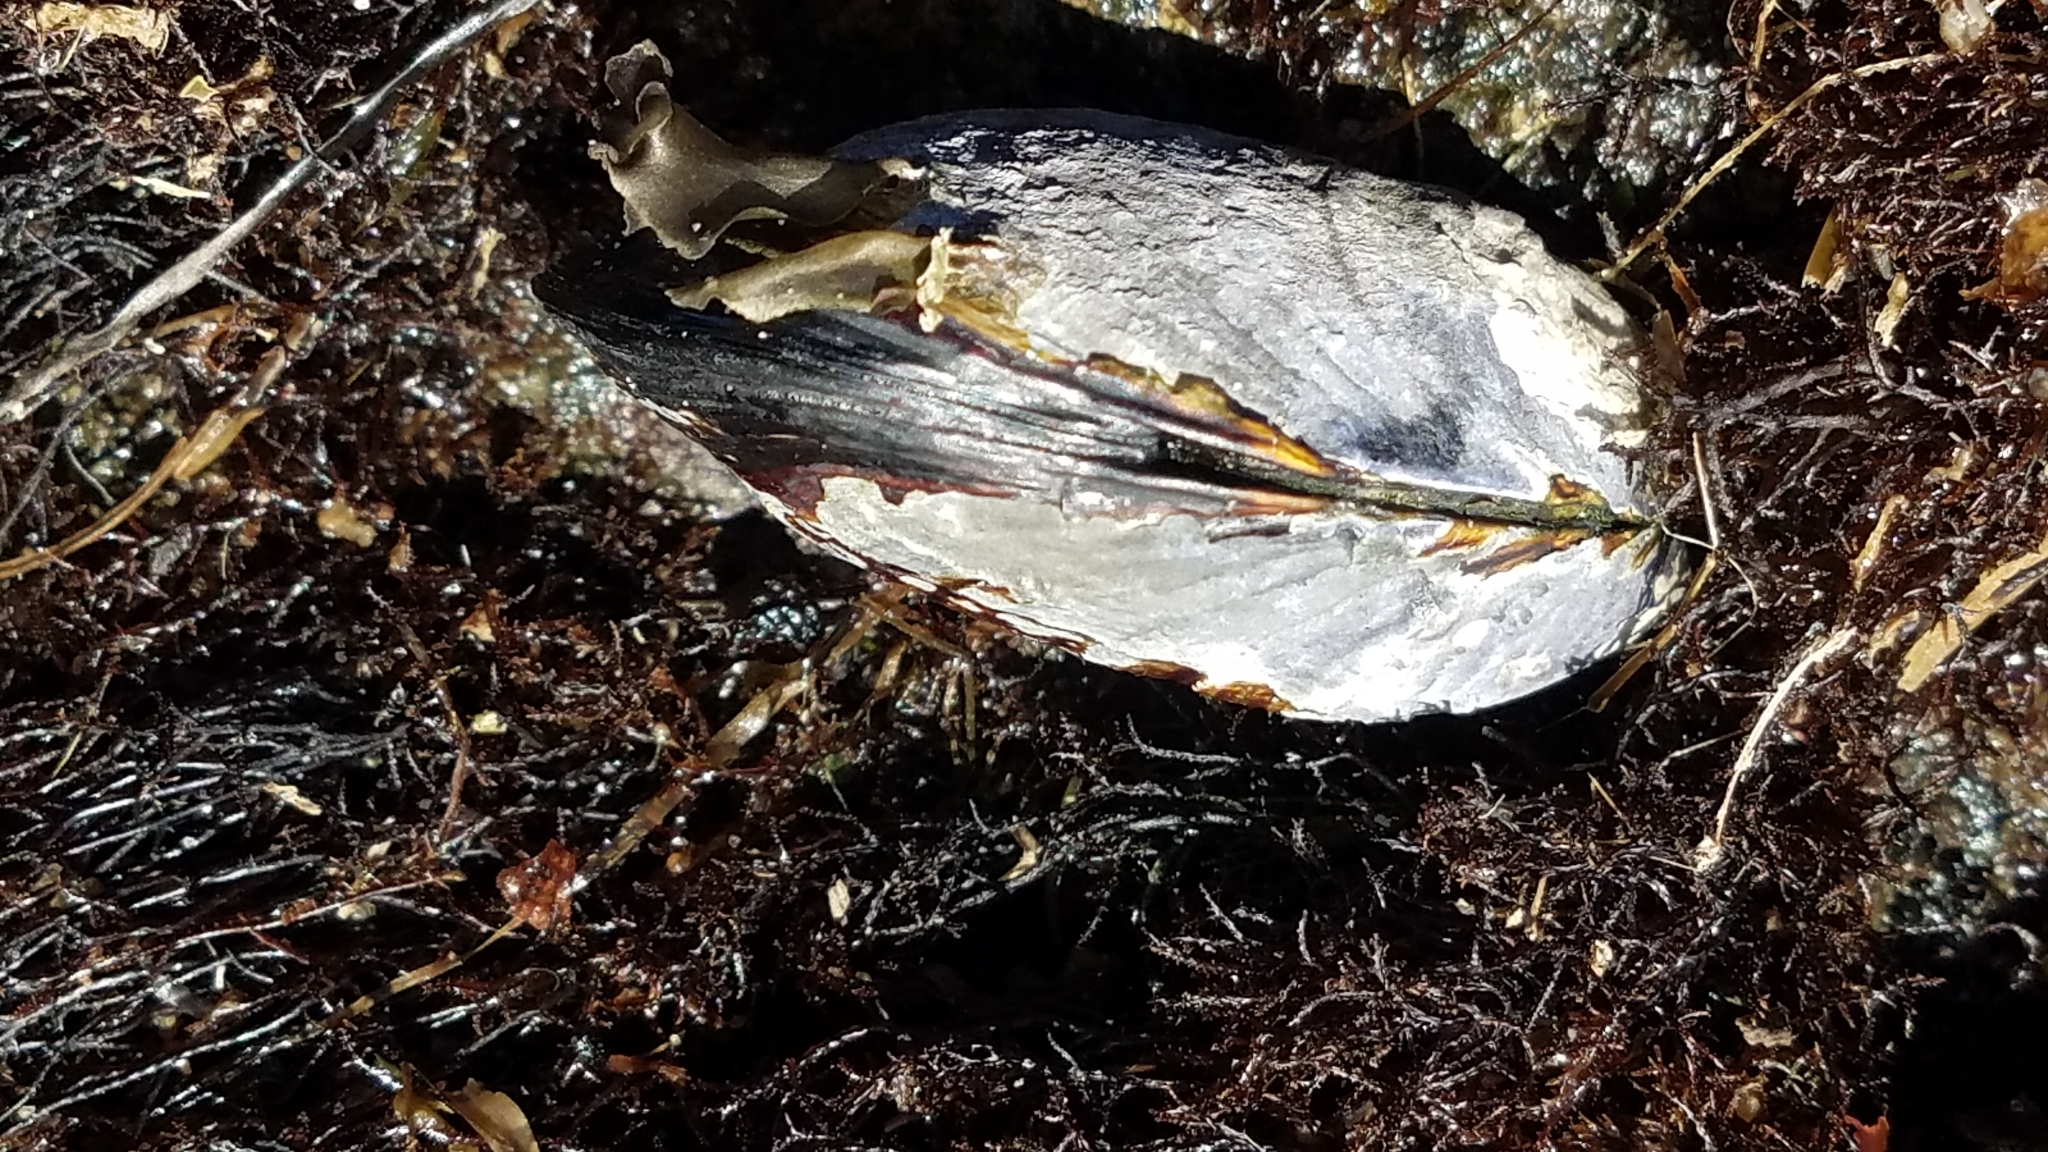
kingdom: Animalia
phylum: Mollusca
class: Bivalvia
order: Mytilida
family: Mytilidae
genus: Mytilus
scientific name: Mytilus californianus
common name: California mussel
